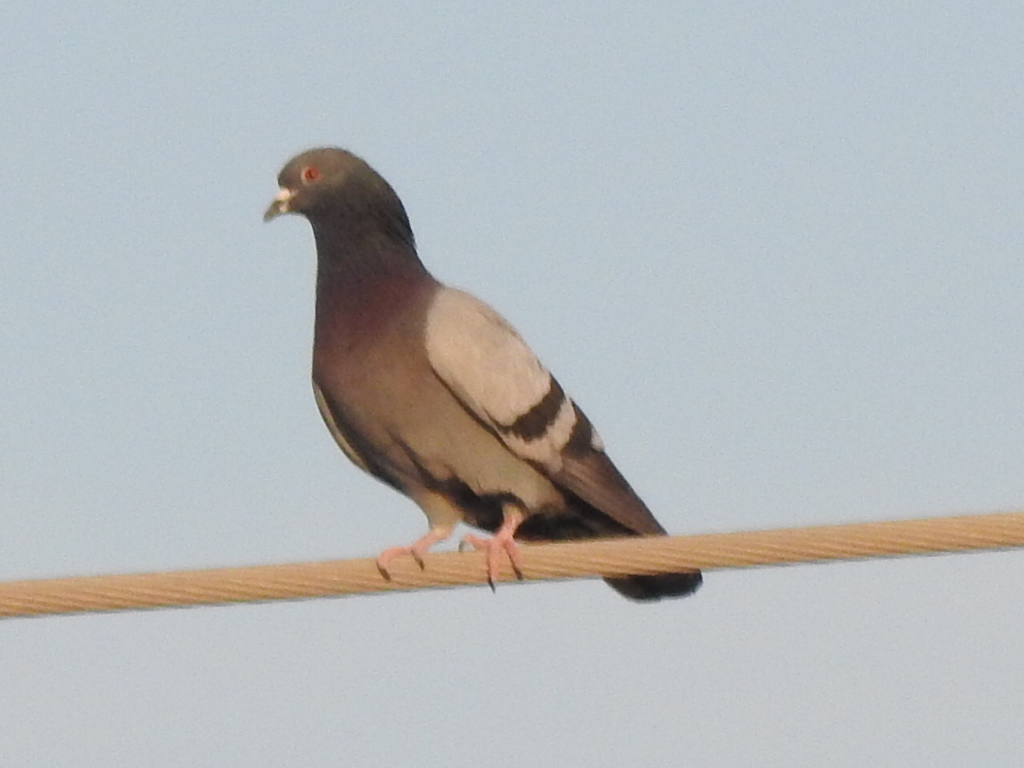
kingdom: Animalia
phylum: Chordata
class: Aves
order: Columbiformes
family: Columbidae
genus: Columba
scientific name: Columba livia
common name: Rock pigeon
